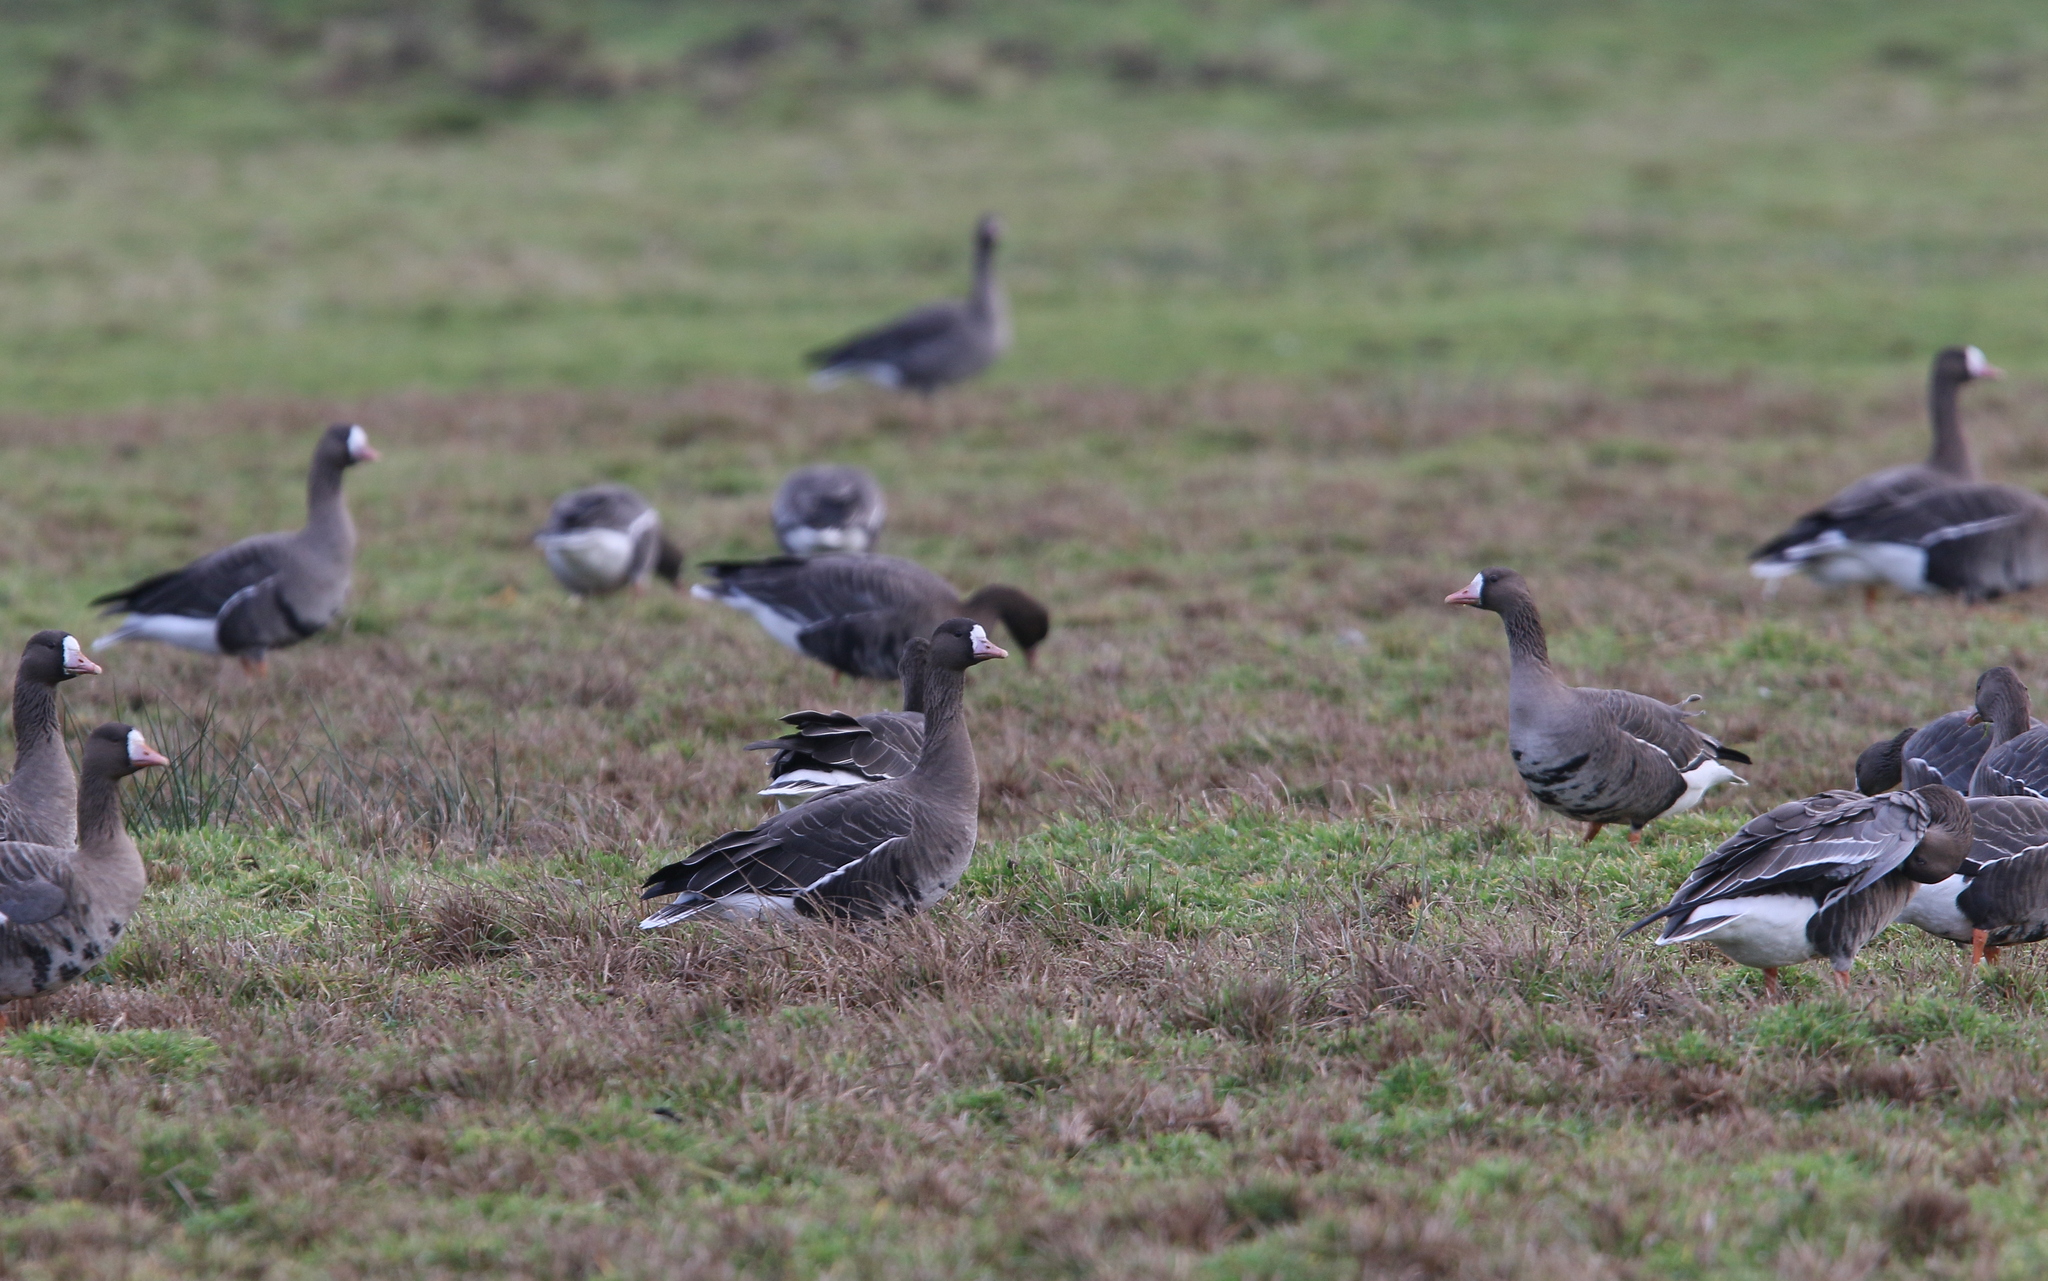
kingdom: Animalia
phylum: Chordata
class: Aves
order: Anseriformes
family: Anatidae
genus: Anser
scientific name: Anser albifrons
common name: Greater white-fronted goose
